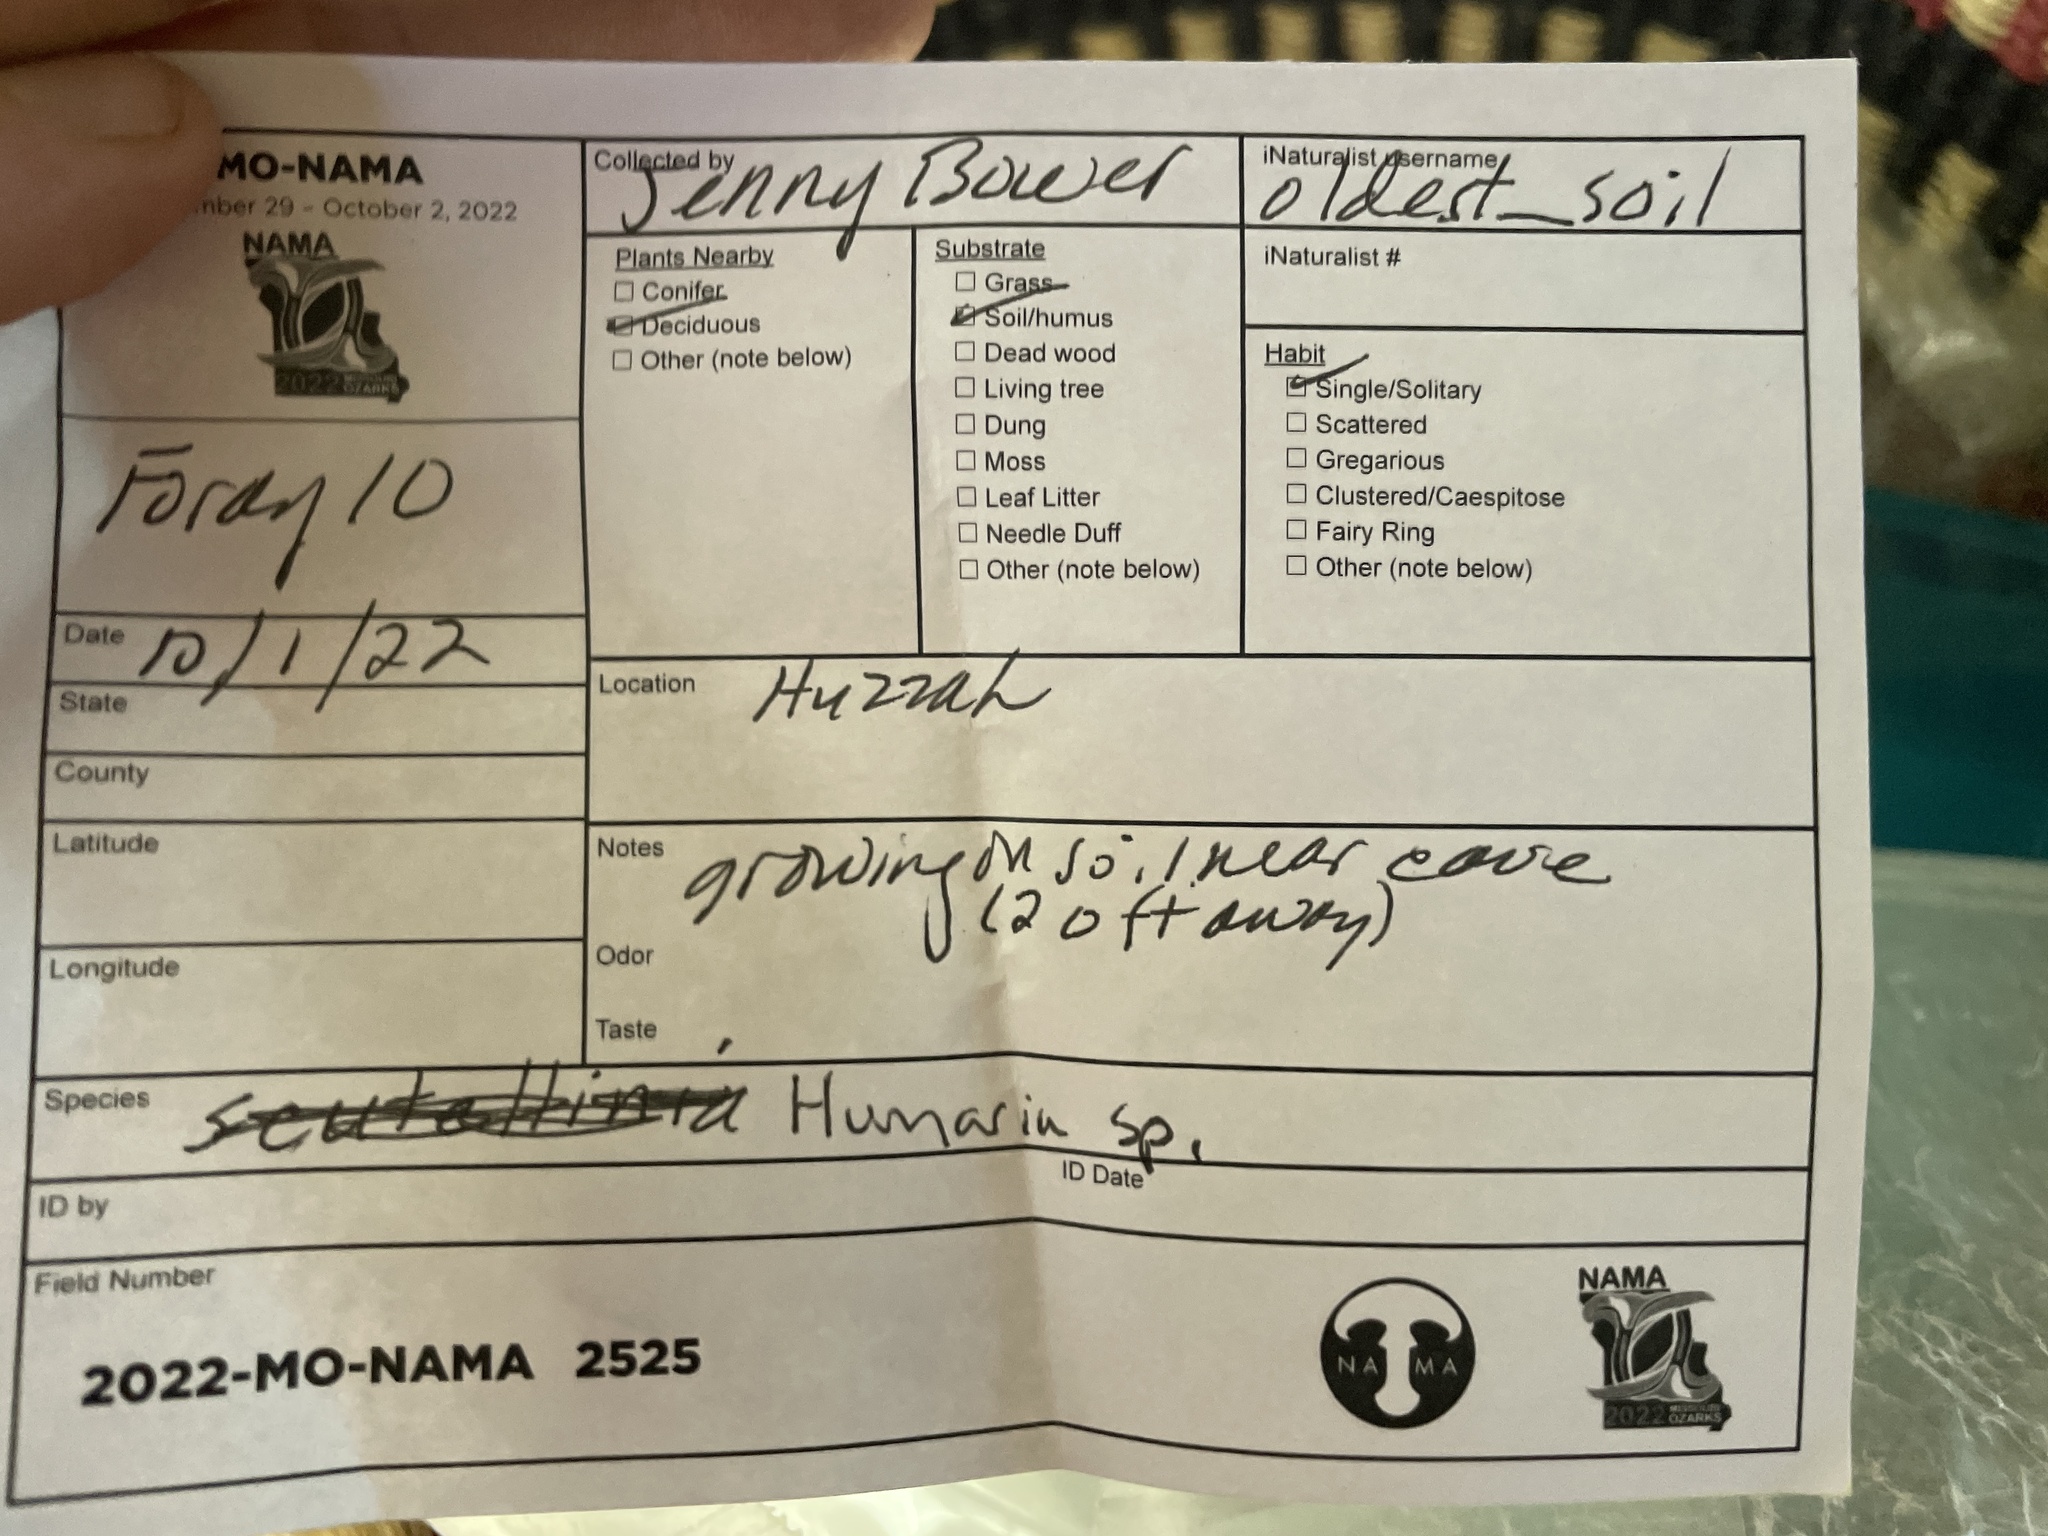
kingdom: Fungi
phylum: Ascomycota
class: Pezizomycetes
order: Pezizales
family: Pyronemataceae
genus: Humaria
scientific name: Humaria hemisphaerica
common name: Glazed cup
